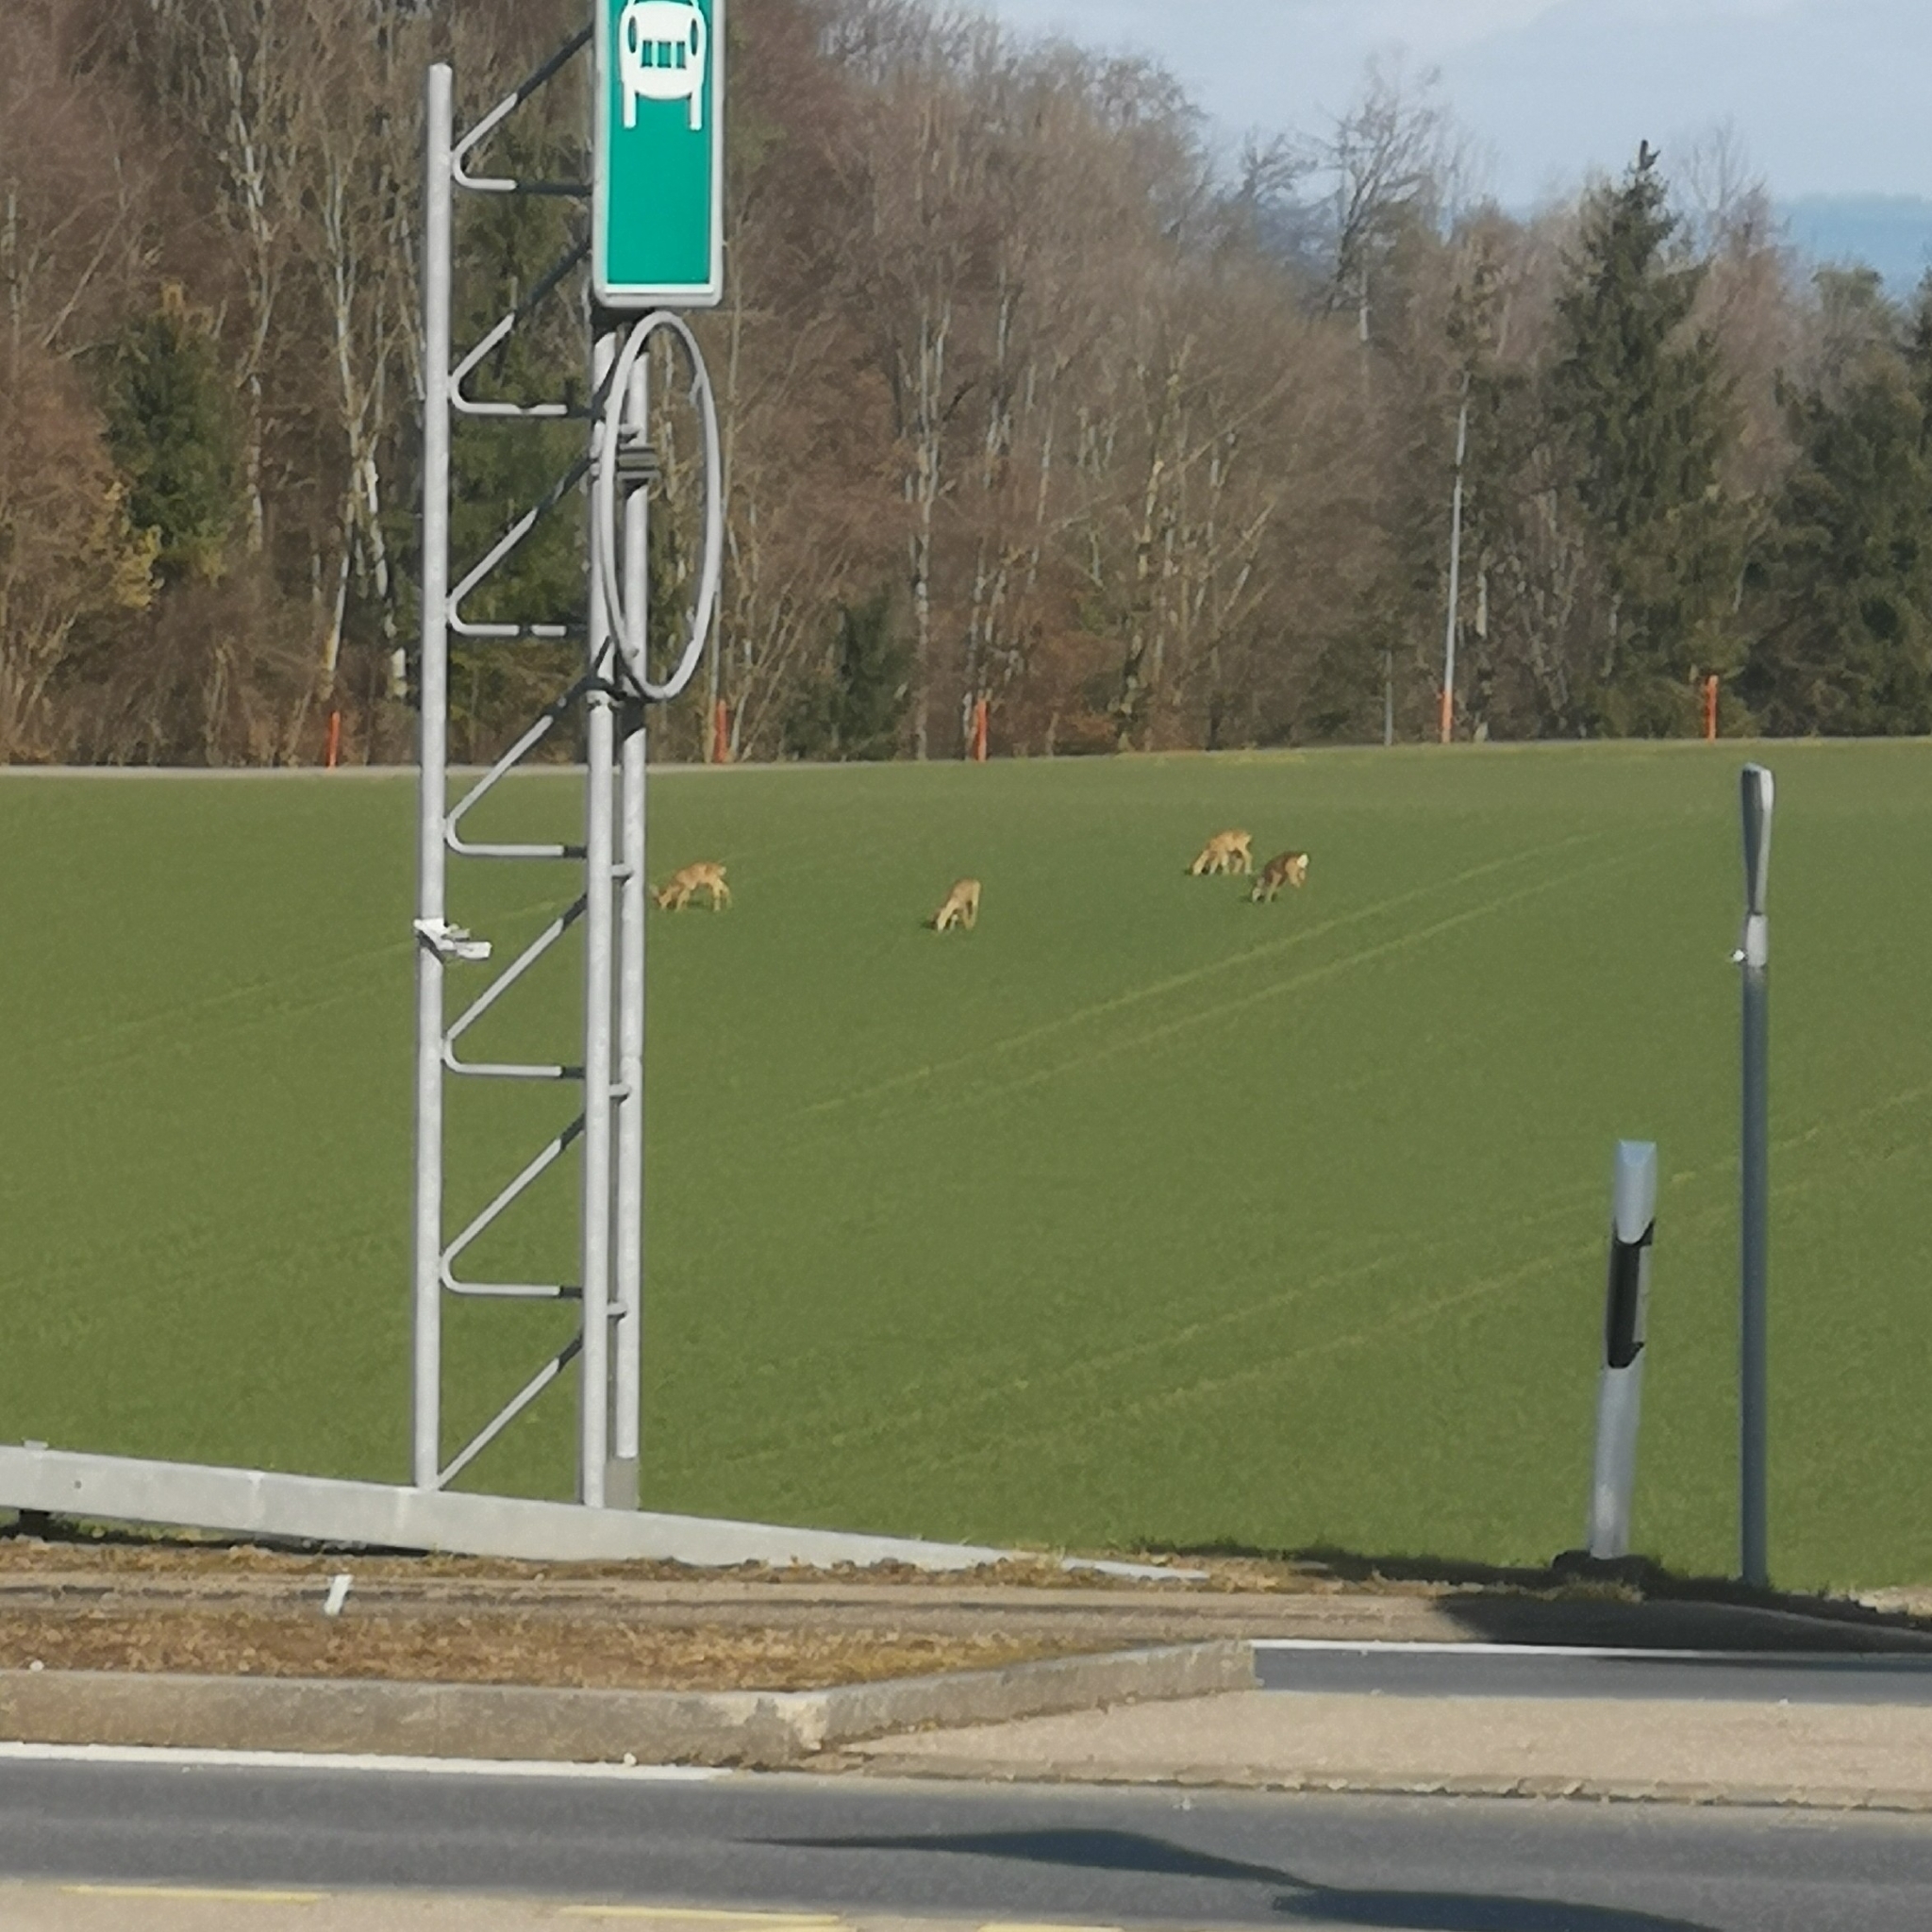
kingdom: Animalia
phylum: Chordata
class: Mammalia
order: Artiodactyla
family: Cervidae
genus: Capreolus
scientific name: Capreolus capreolus
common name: Western roe deer
